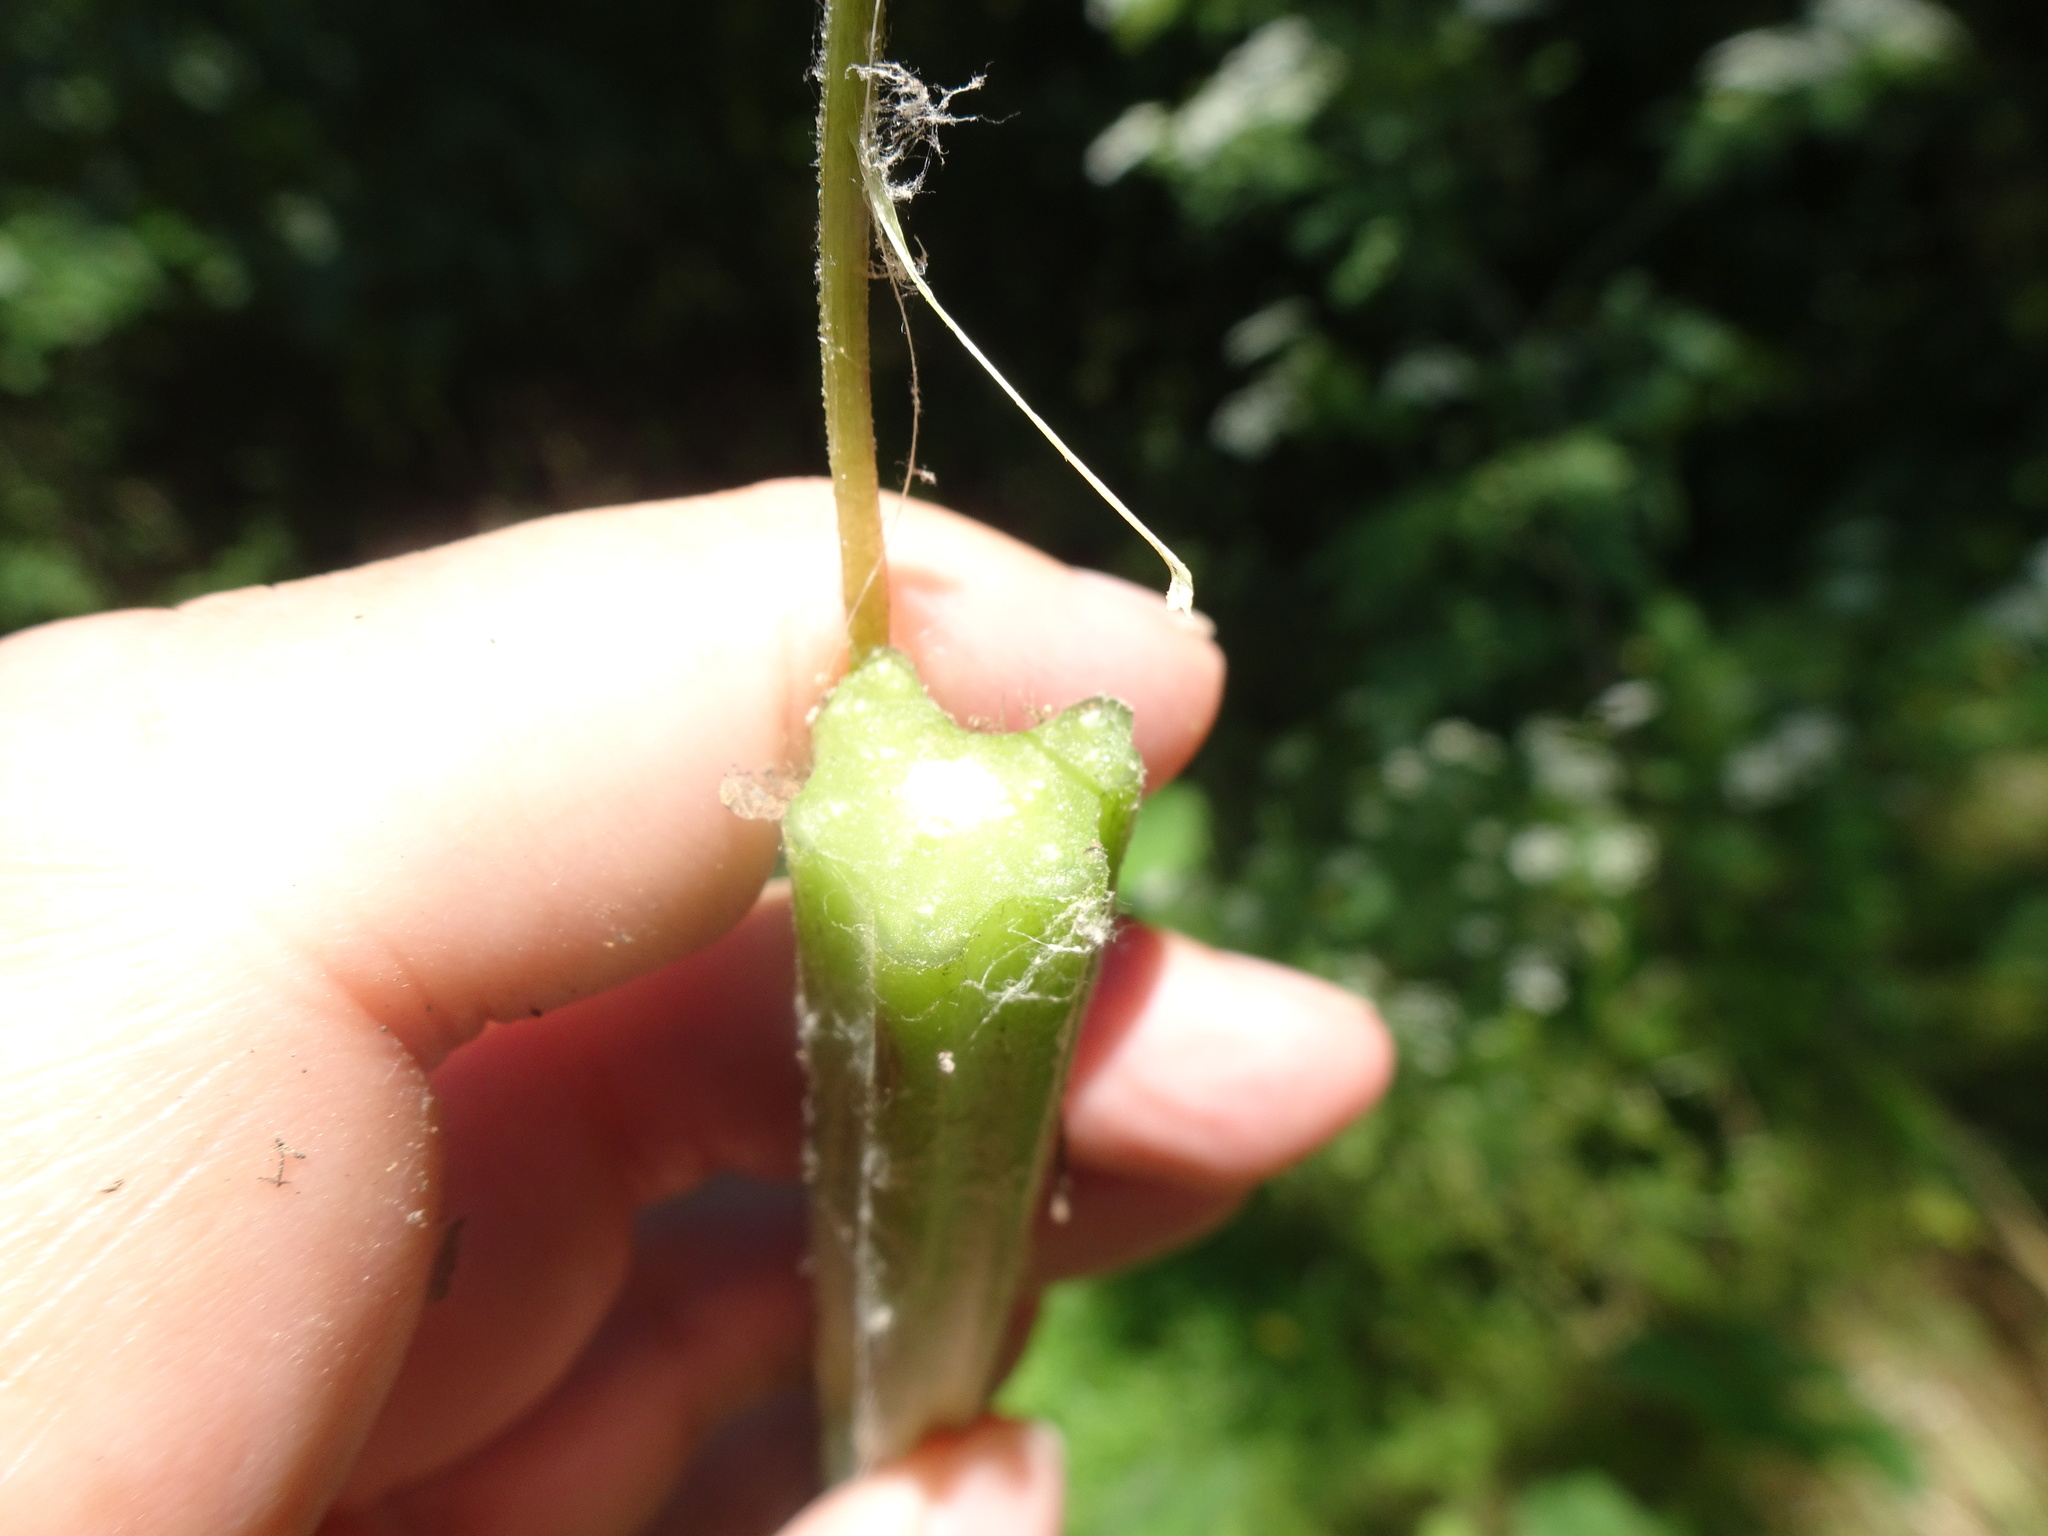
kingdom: Plantae
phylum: Tracheophyta
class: Magnoliopsida
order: Asterales
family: Asteraceae
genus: Arctium
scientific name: Arctium lappa
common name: Greater burdock
